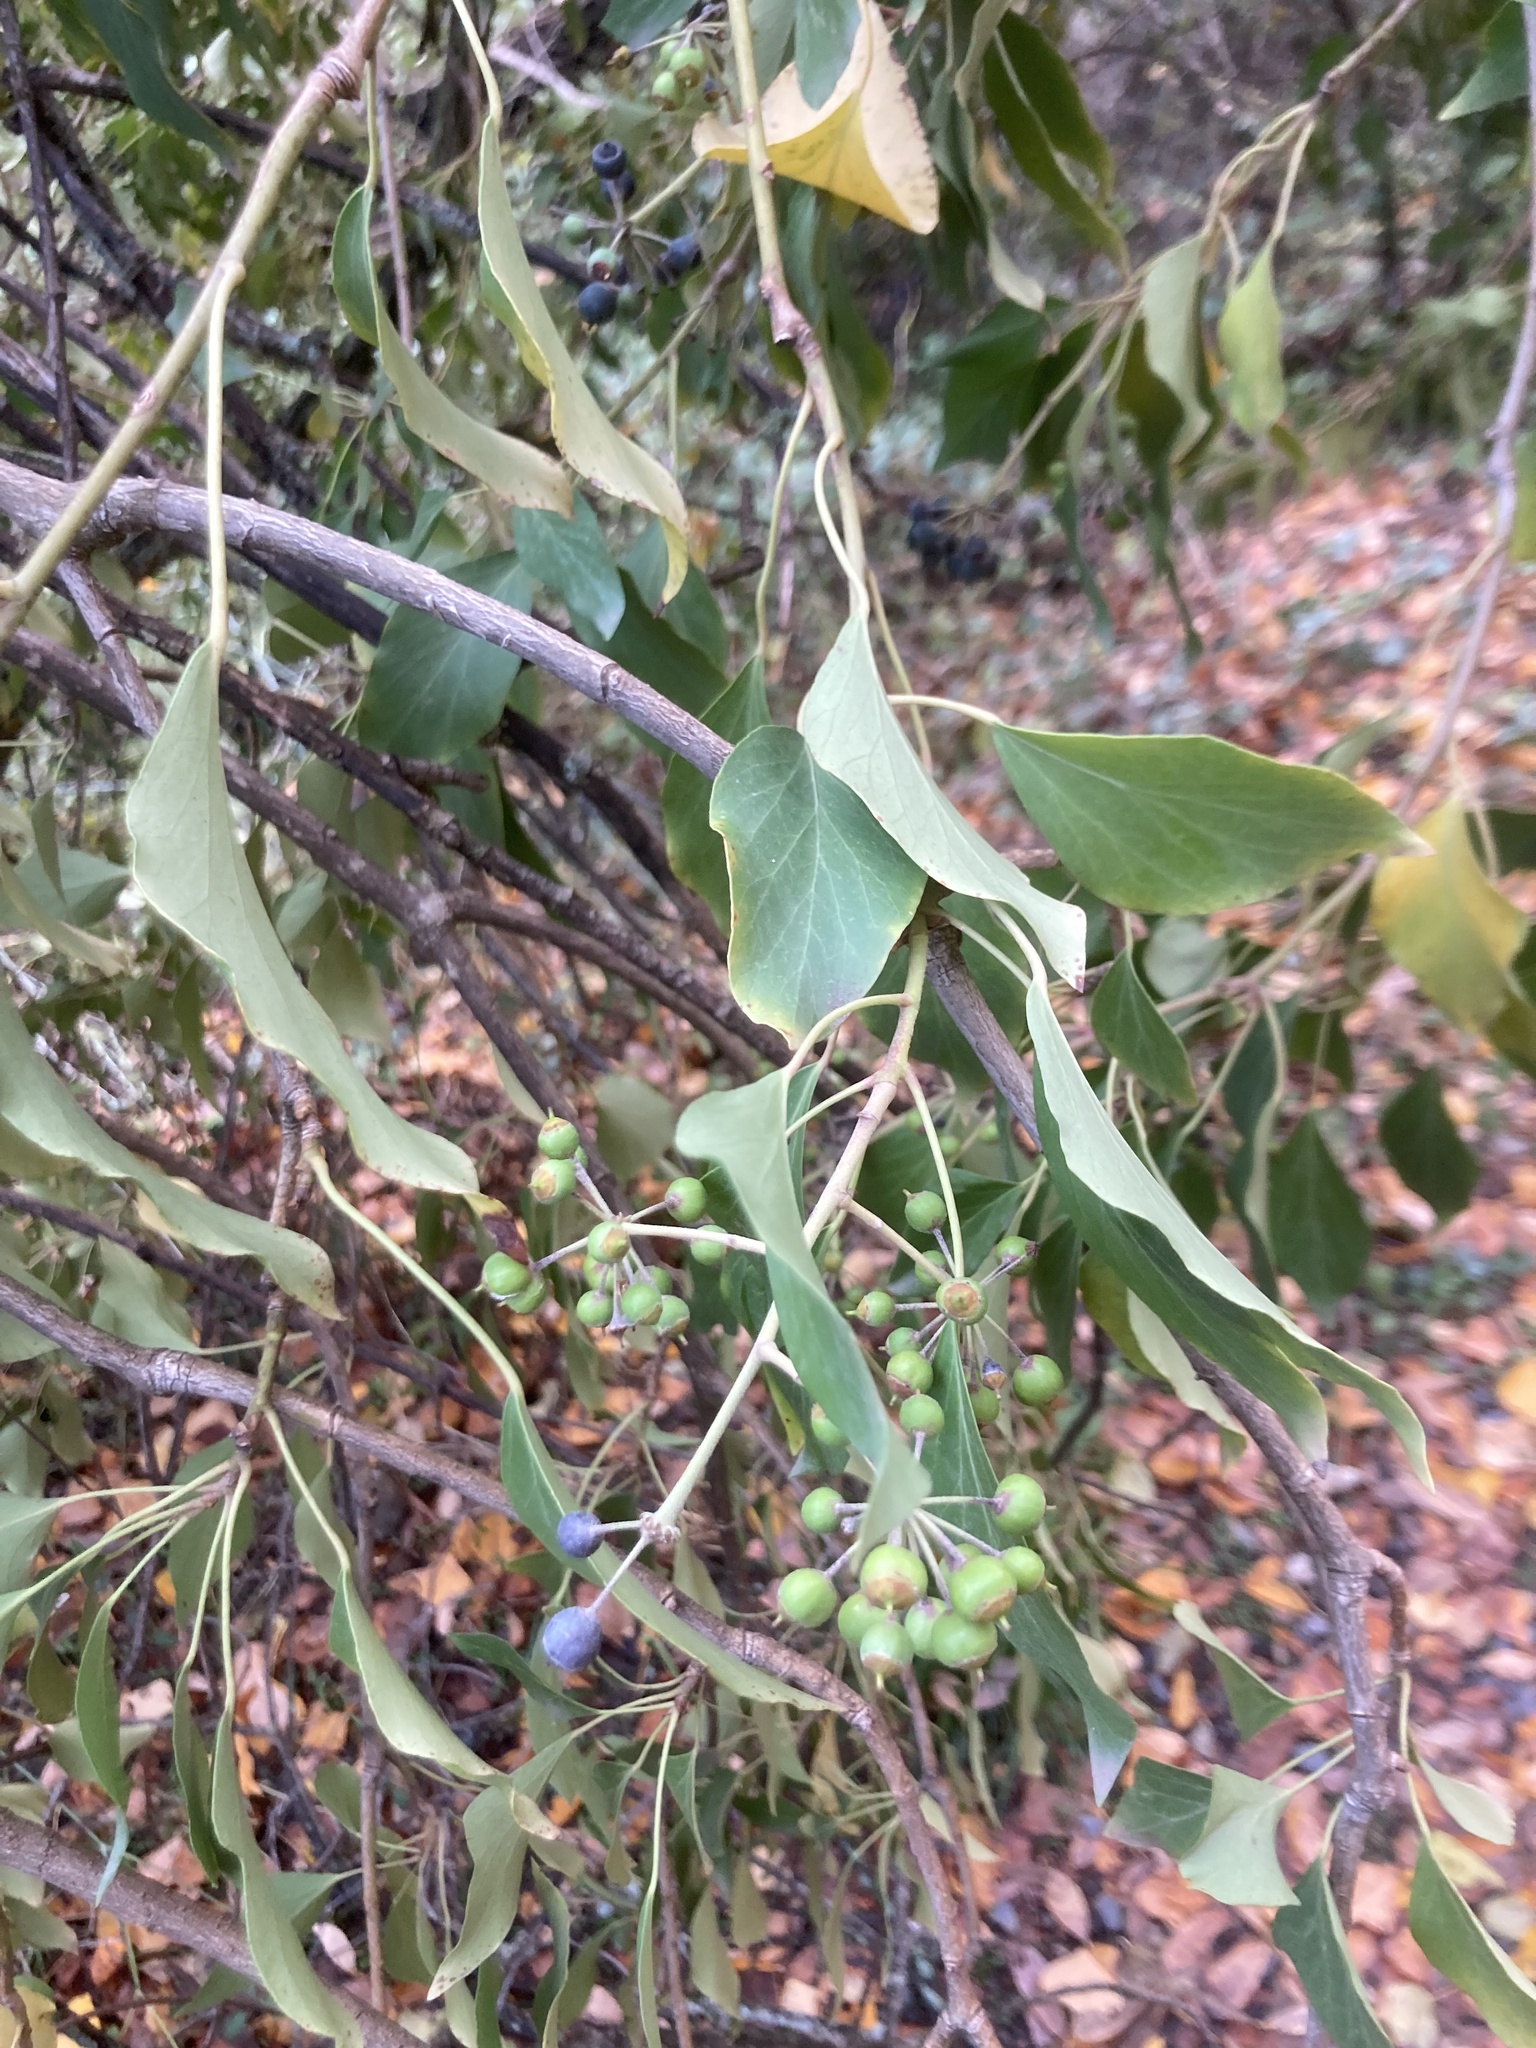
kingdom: Plantae
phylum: Tracheophyta
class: Magnoliopsida
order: Apiales
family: Araliaceae
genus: Hedera
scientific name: Hedera helix
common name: Ivy
